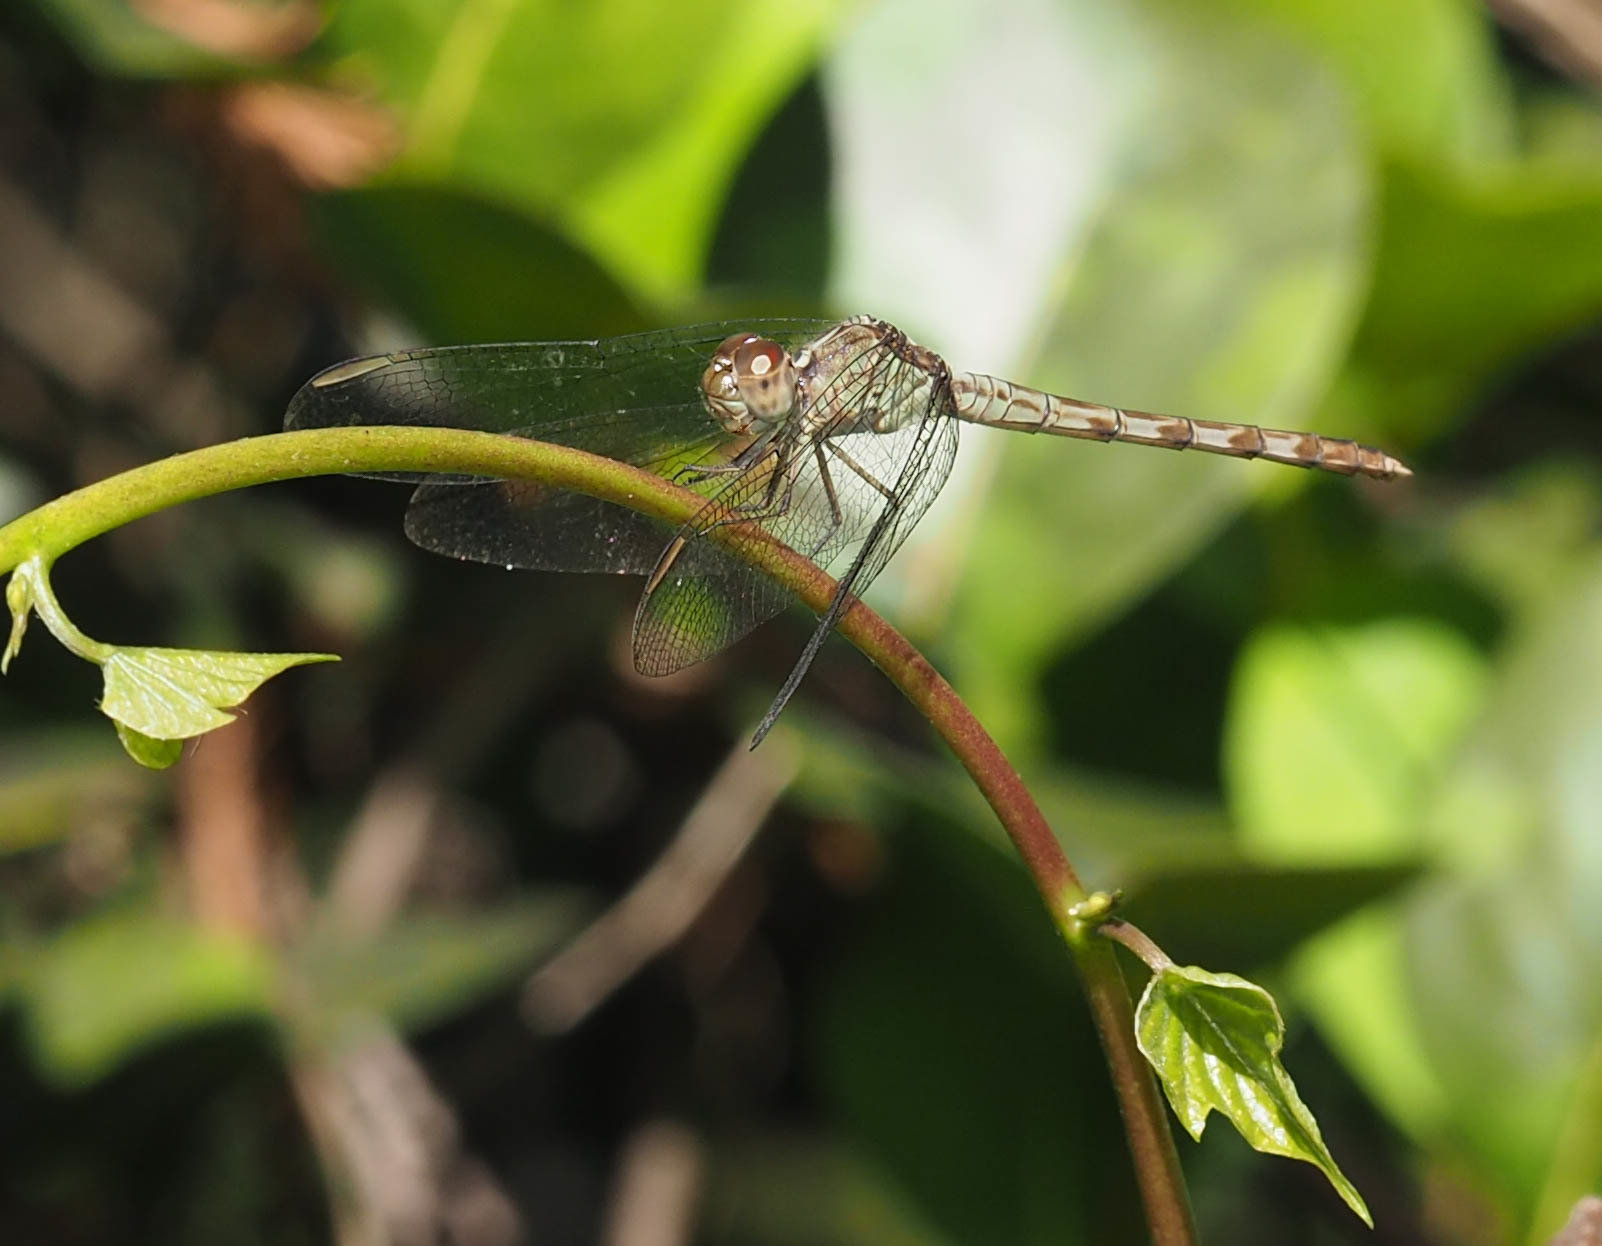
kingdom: Animalia
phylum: Arthropoda
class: Insecta
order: Odonata
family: Libellulidae
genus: Erythrodiplax
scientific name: Erythrodiplax umbrata
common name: Band-winged dragonlet
